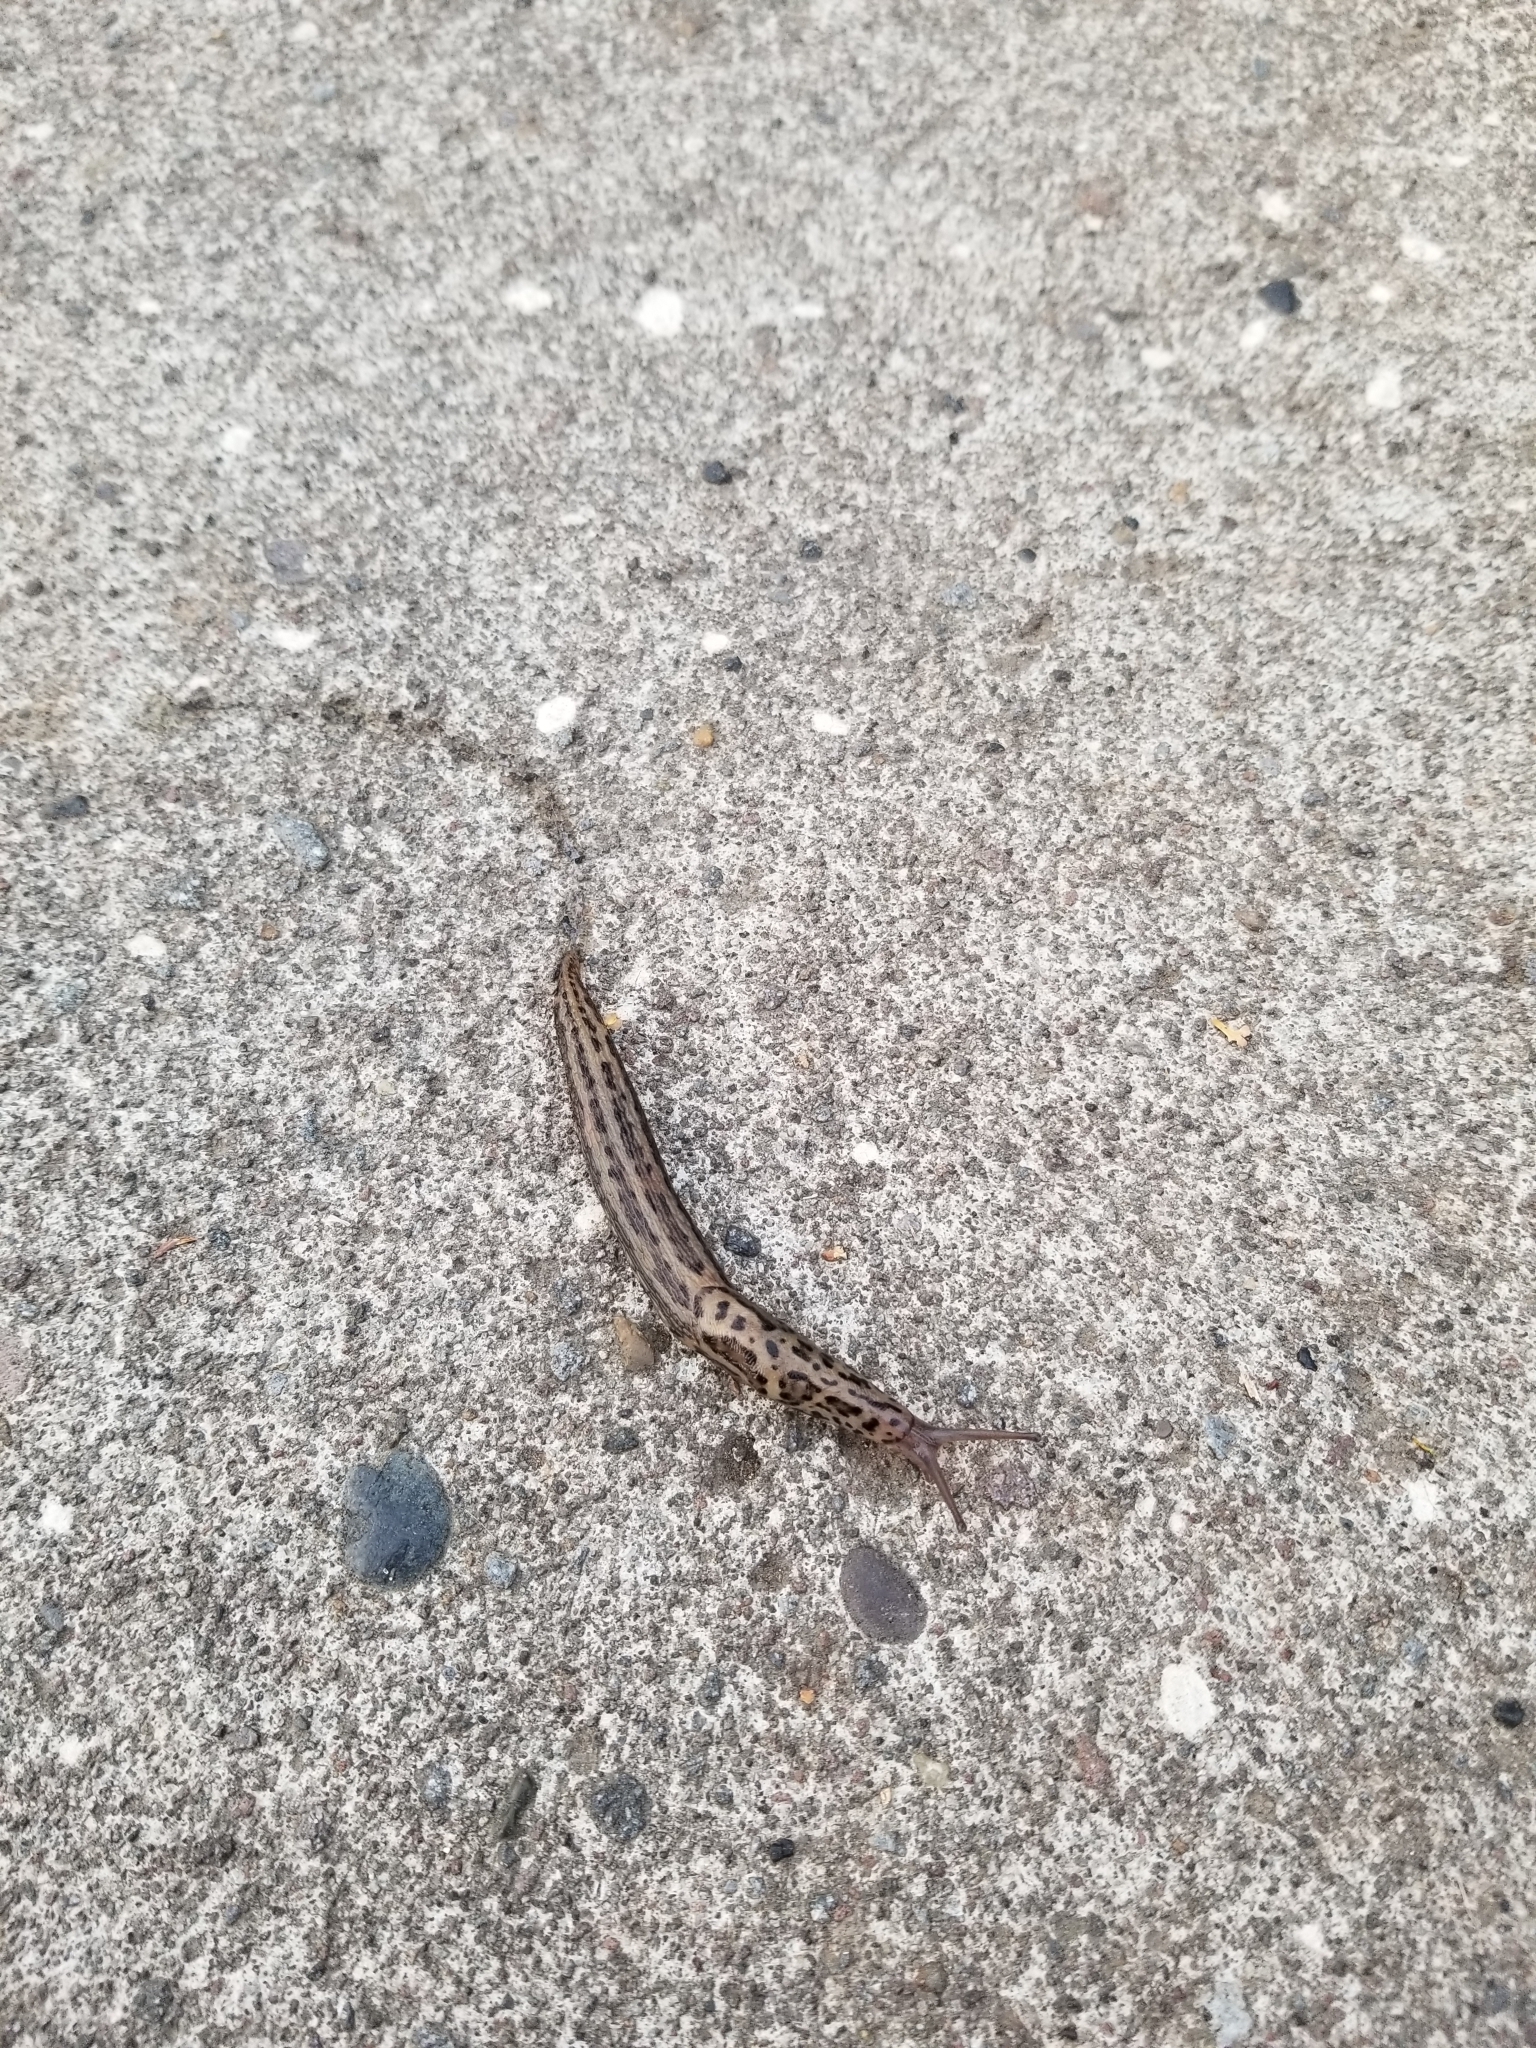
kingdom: Animalia
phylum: Mollusca
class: Gastropoda
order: Stylommatophora
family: Limacidae
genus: Limax
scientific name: Limax maximus
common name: Great grey slug
